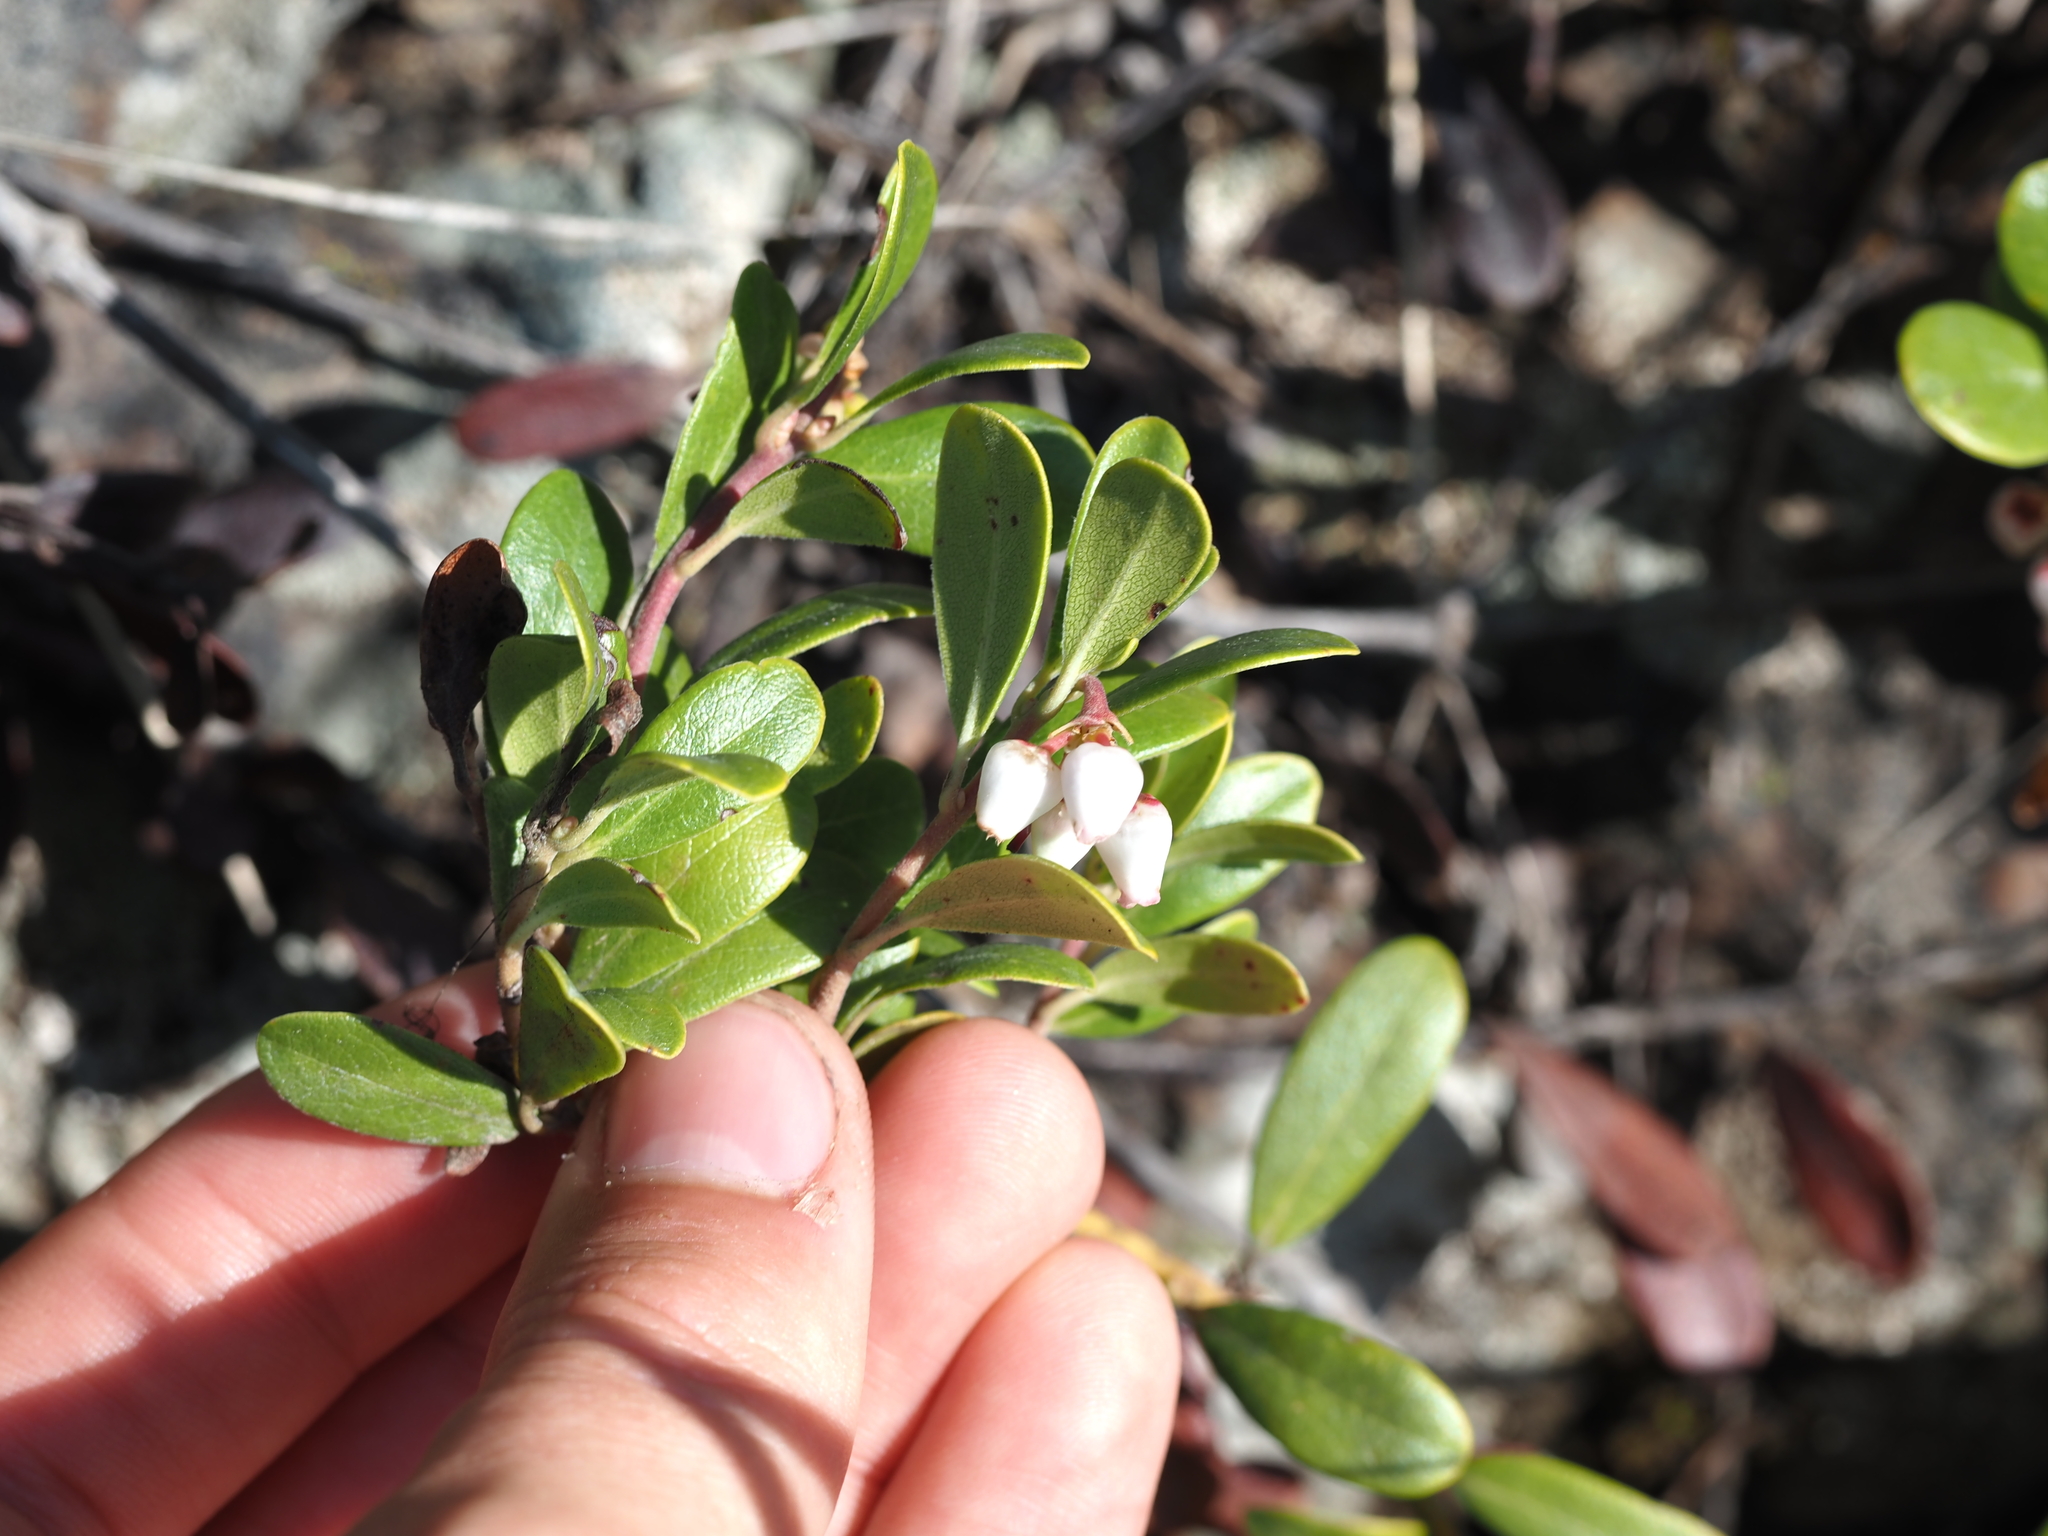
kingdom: Plantae
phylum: Tracheophyta
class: Magnoliopsida
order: Ericales
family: Ericaceae
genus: Arctostaphylos
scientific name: Arctostaphylos uva-ursi
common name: Bearberry
